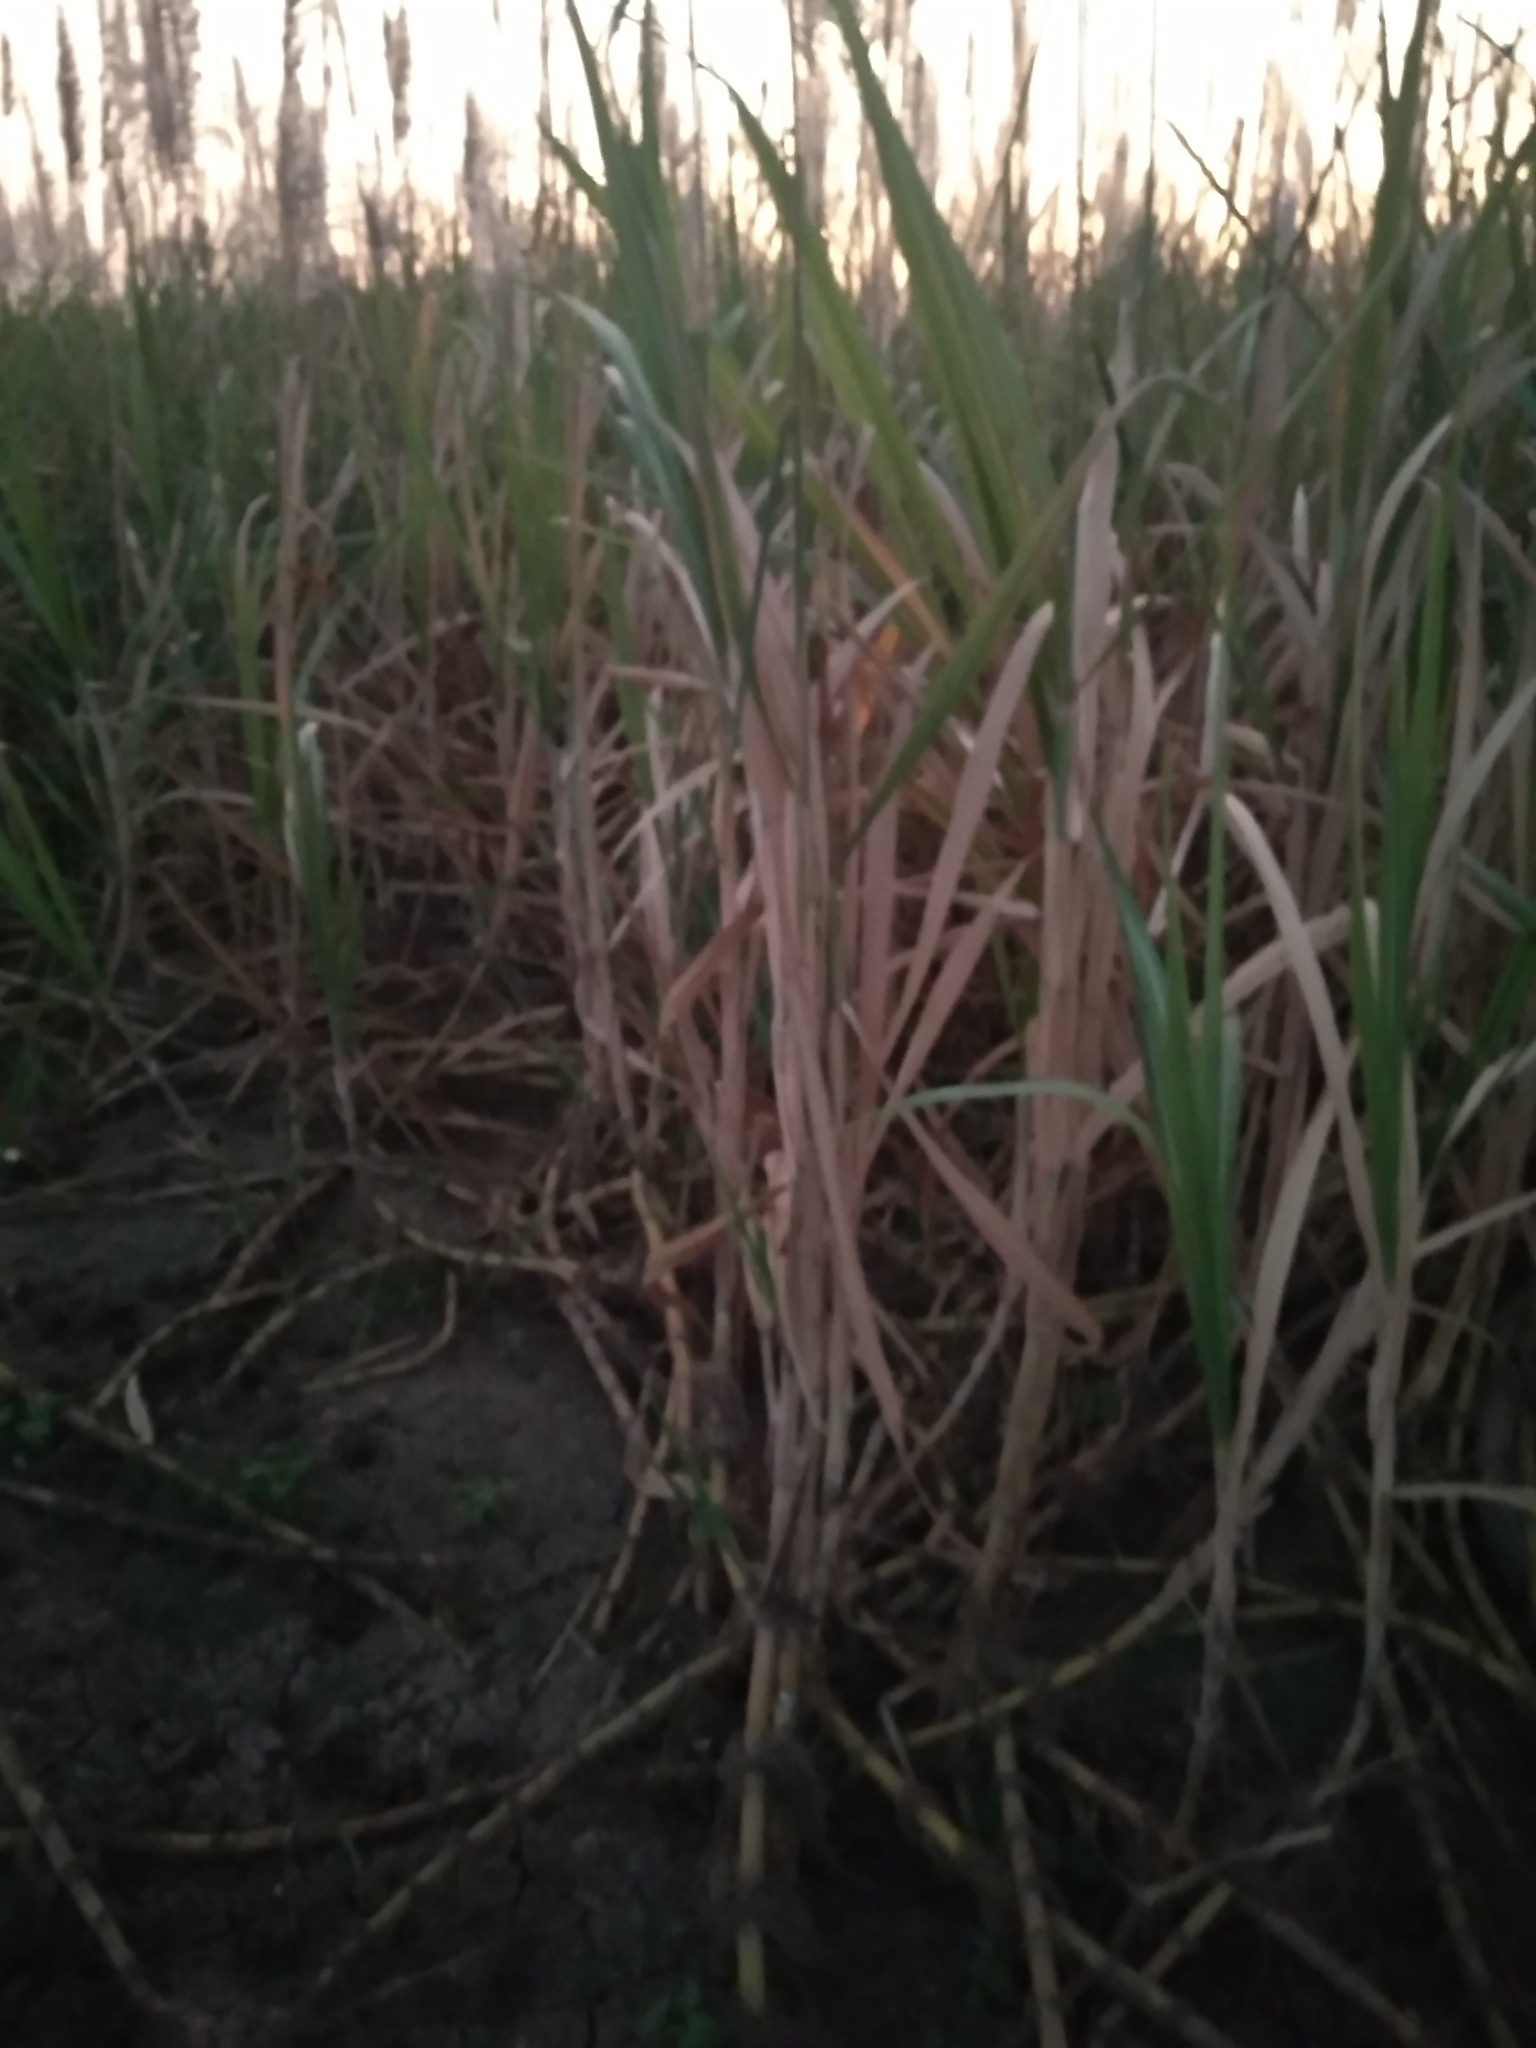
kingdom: Plantae
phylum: Tracheophyta
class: Liliopsida
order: Poales
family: Poaceae
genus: Saccharum
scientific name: Saccharum officinarum
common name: Sugarcane
